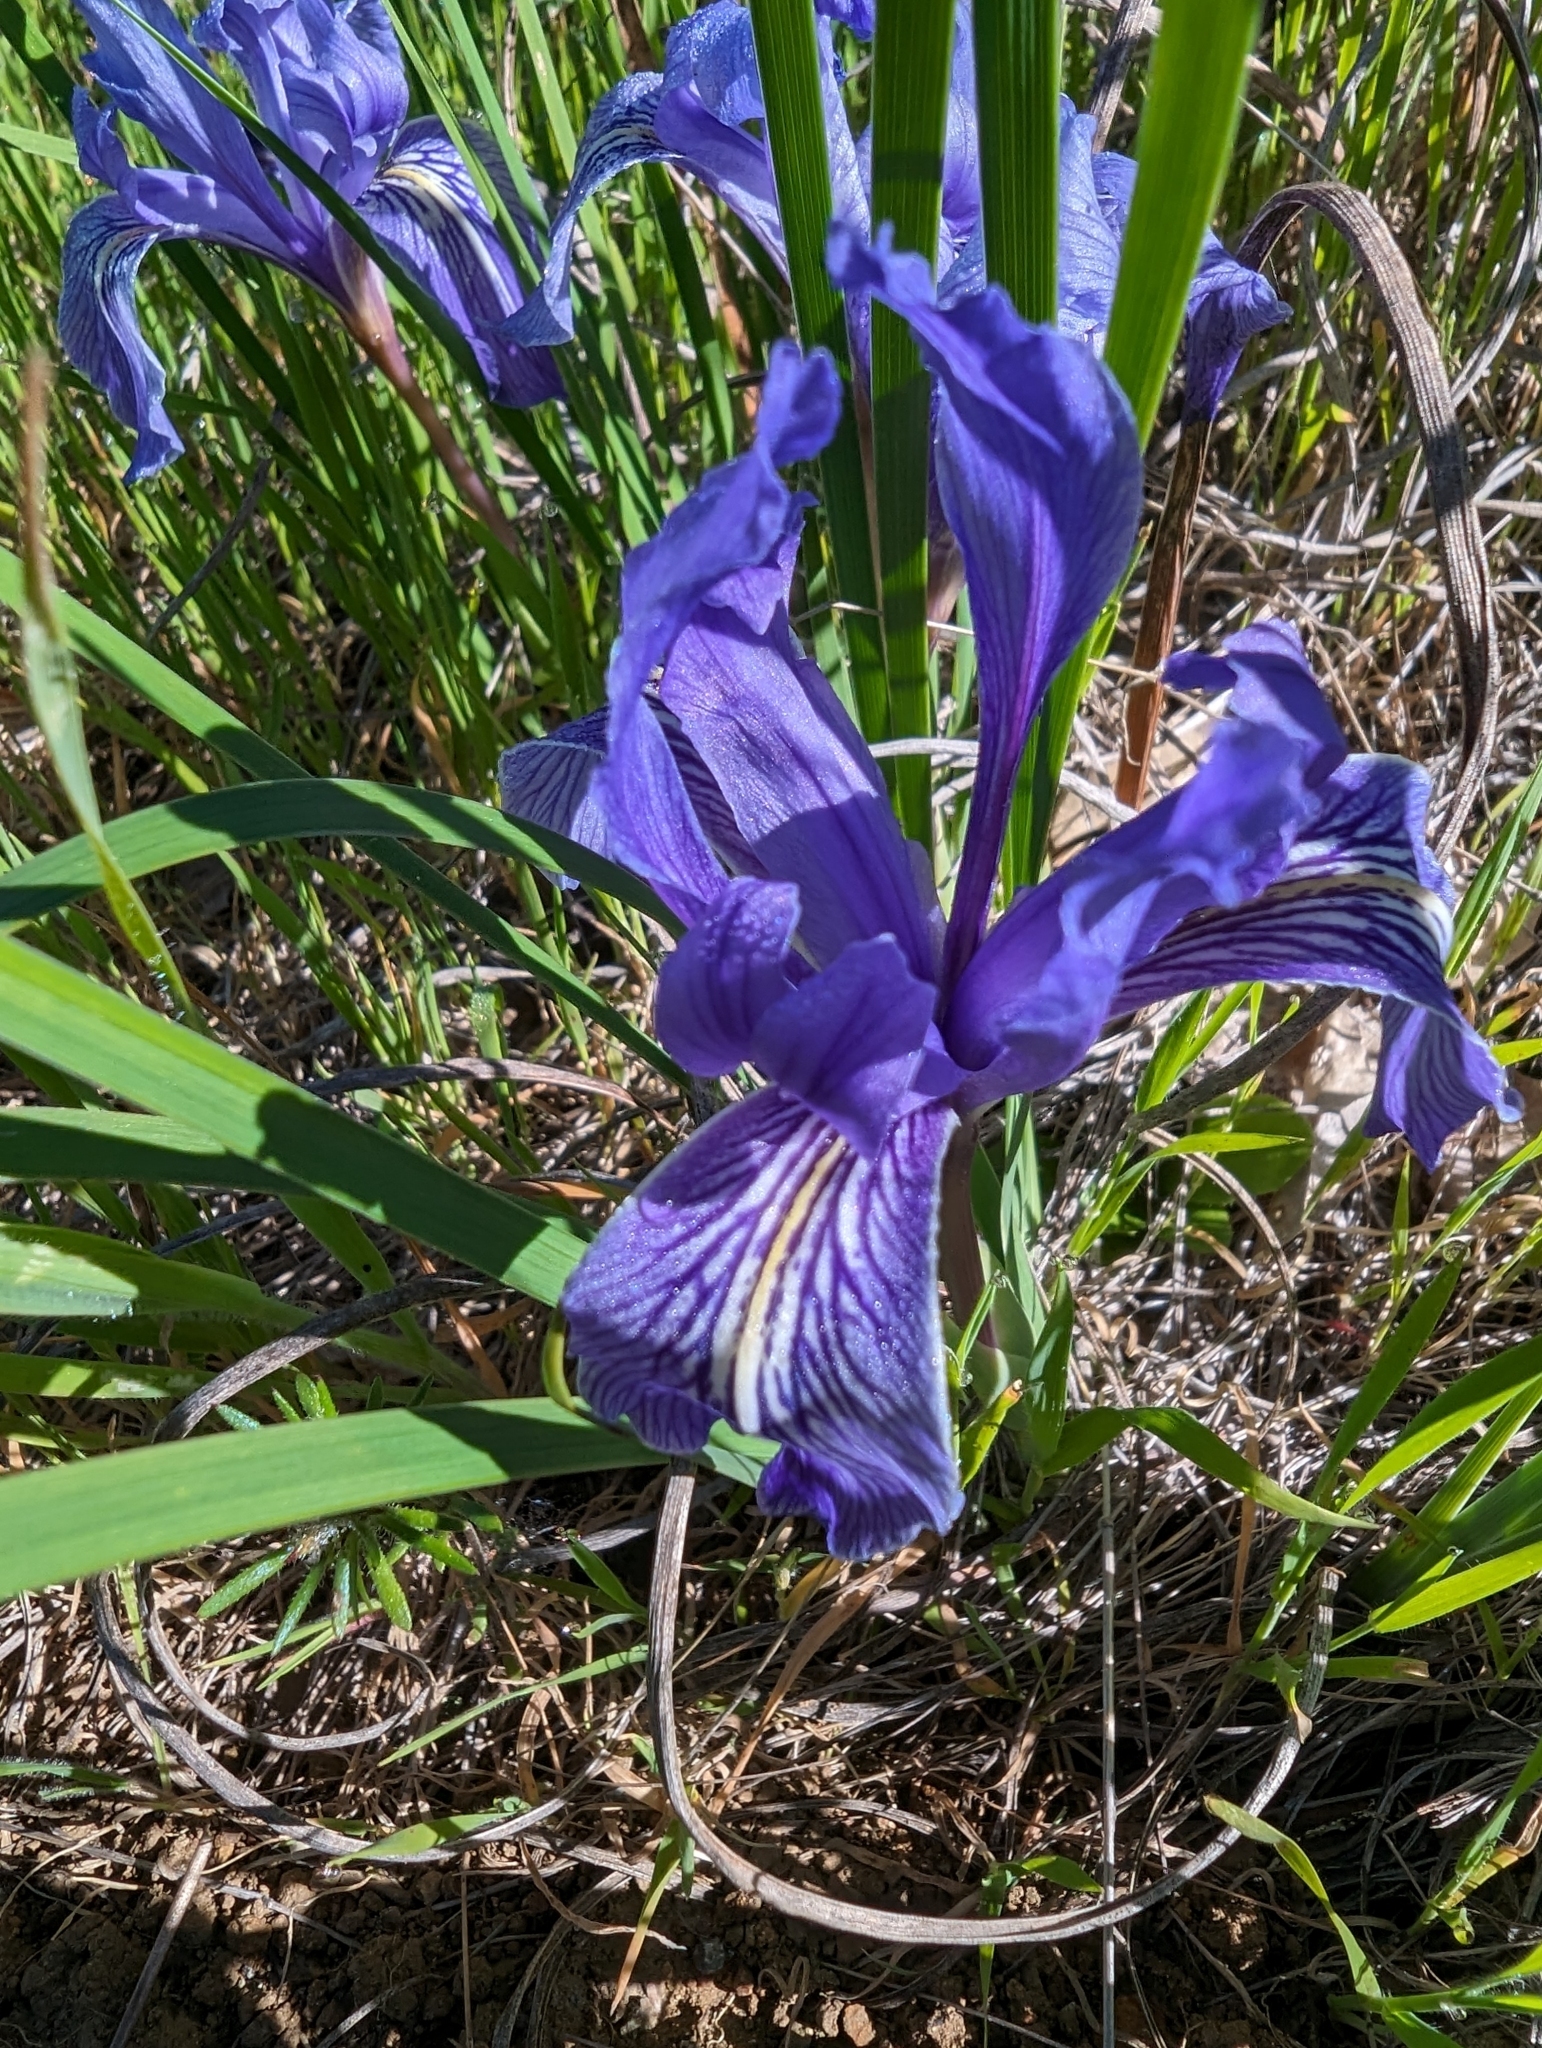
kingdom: Plantae
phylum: Tracheophyta
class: Liliopsida
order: Asparagales
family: Iridaceae
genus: Iris
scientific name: Iris macrosiphon
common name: Ground iris
